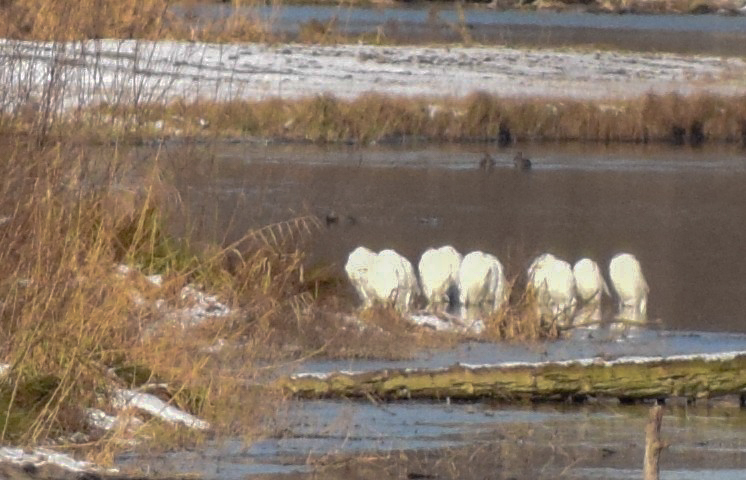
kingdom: Animalia
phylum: Chordata
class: Aves
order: Pelecaniformes
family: Ardeidae
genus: Ardea
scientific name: Ardea alba
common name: Great egret
